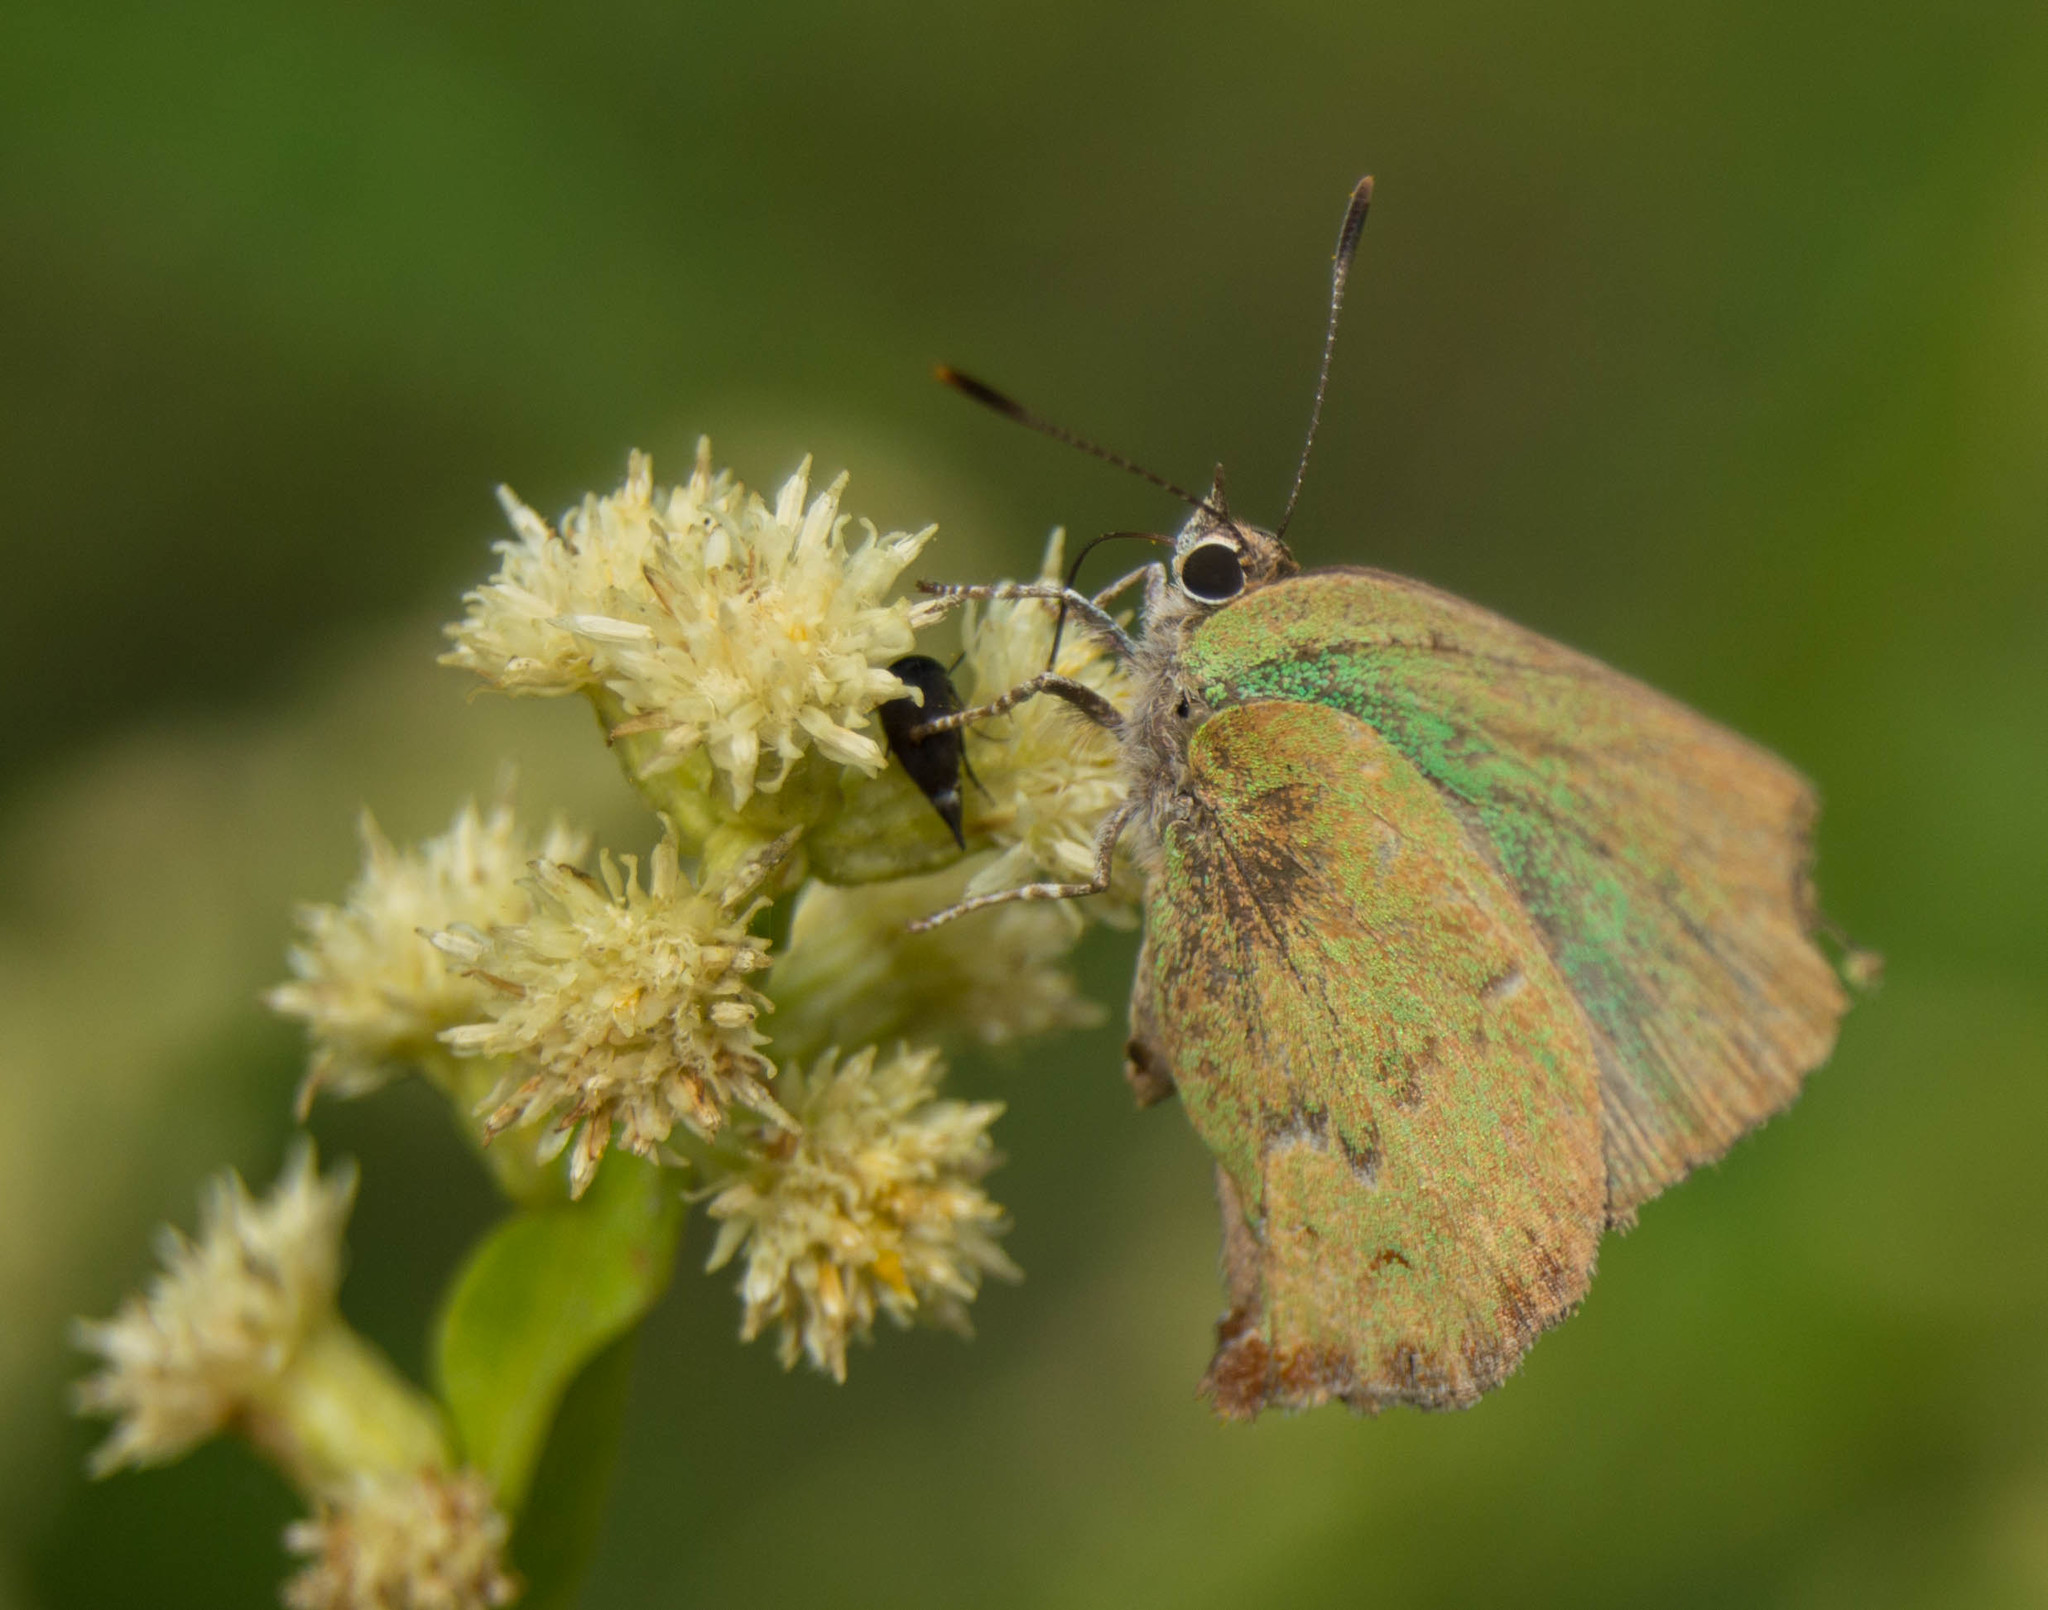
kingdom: Animalia
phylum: Arthropoda
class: Insecta
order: Lepidoptera
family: Lycaenidae
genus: Cyanophrys
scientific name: Cyanophrys
